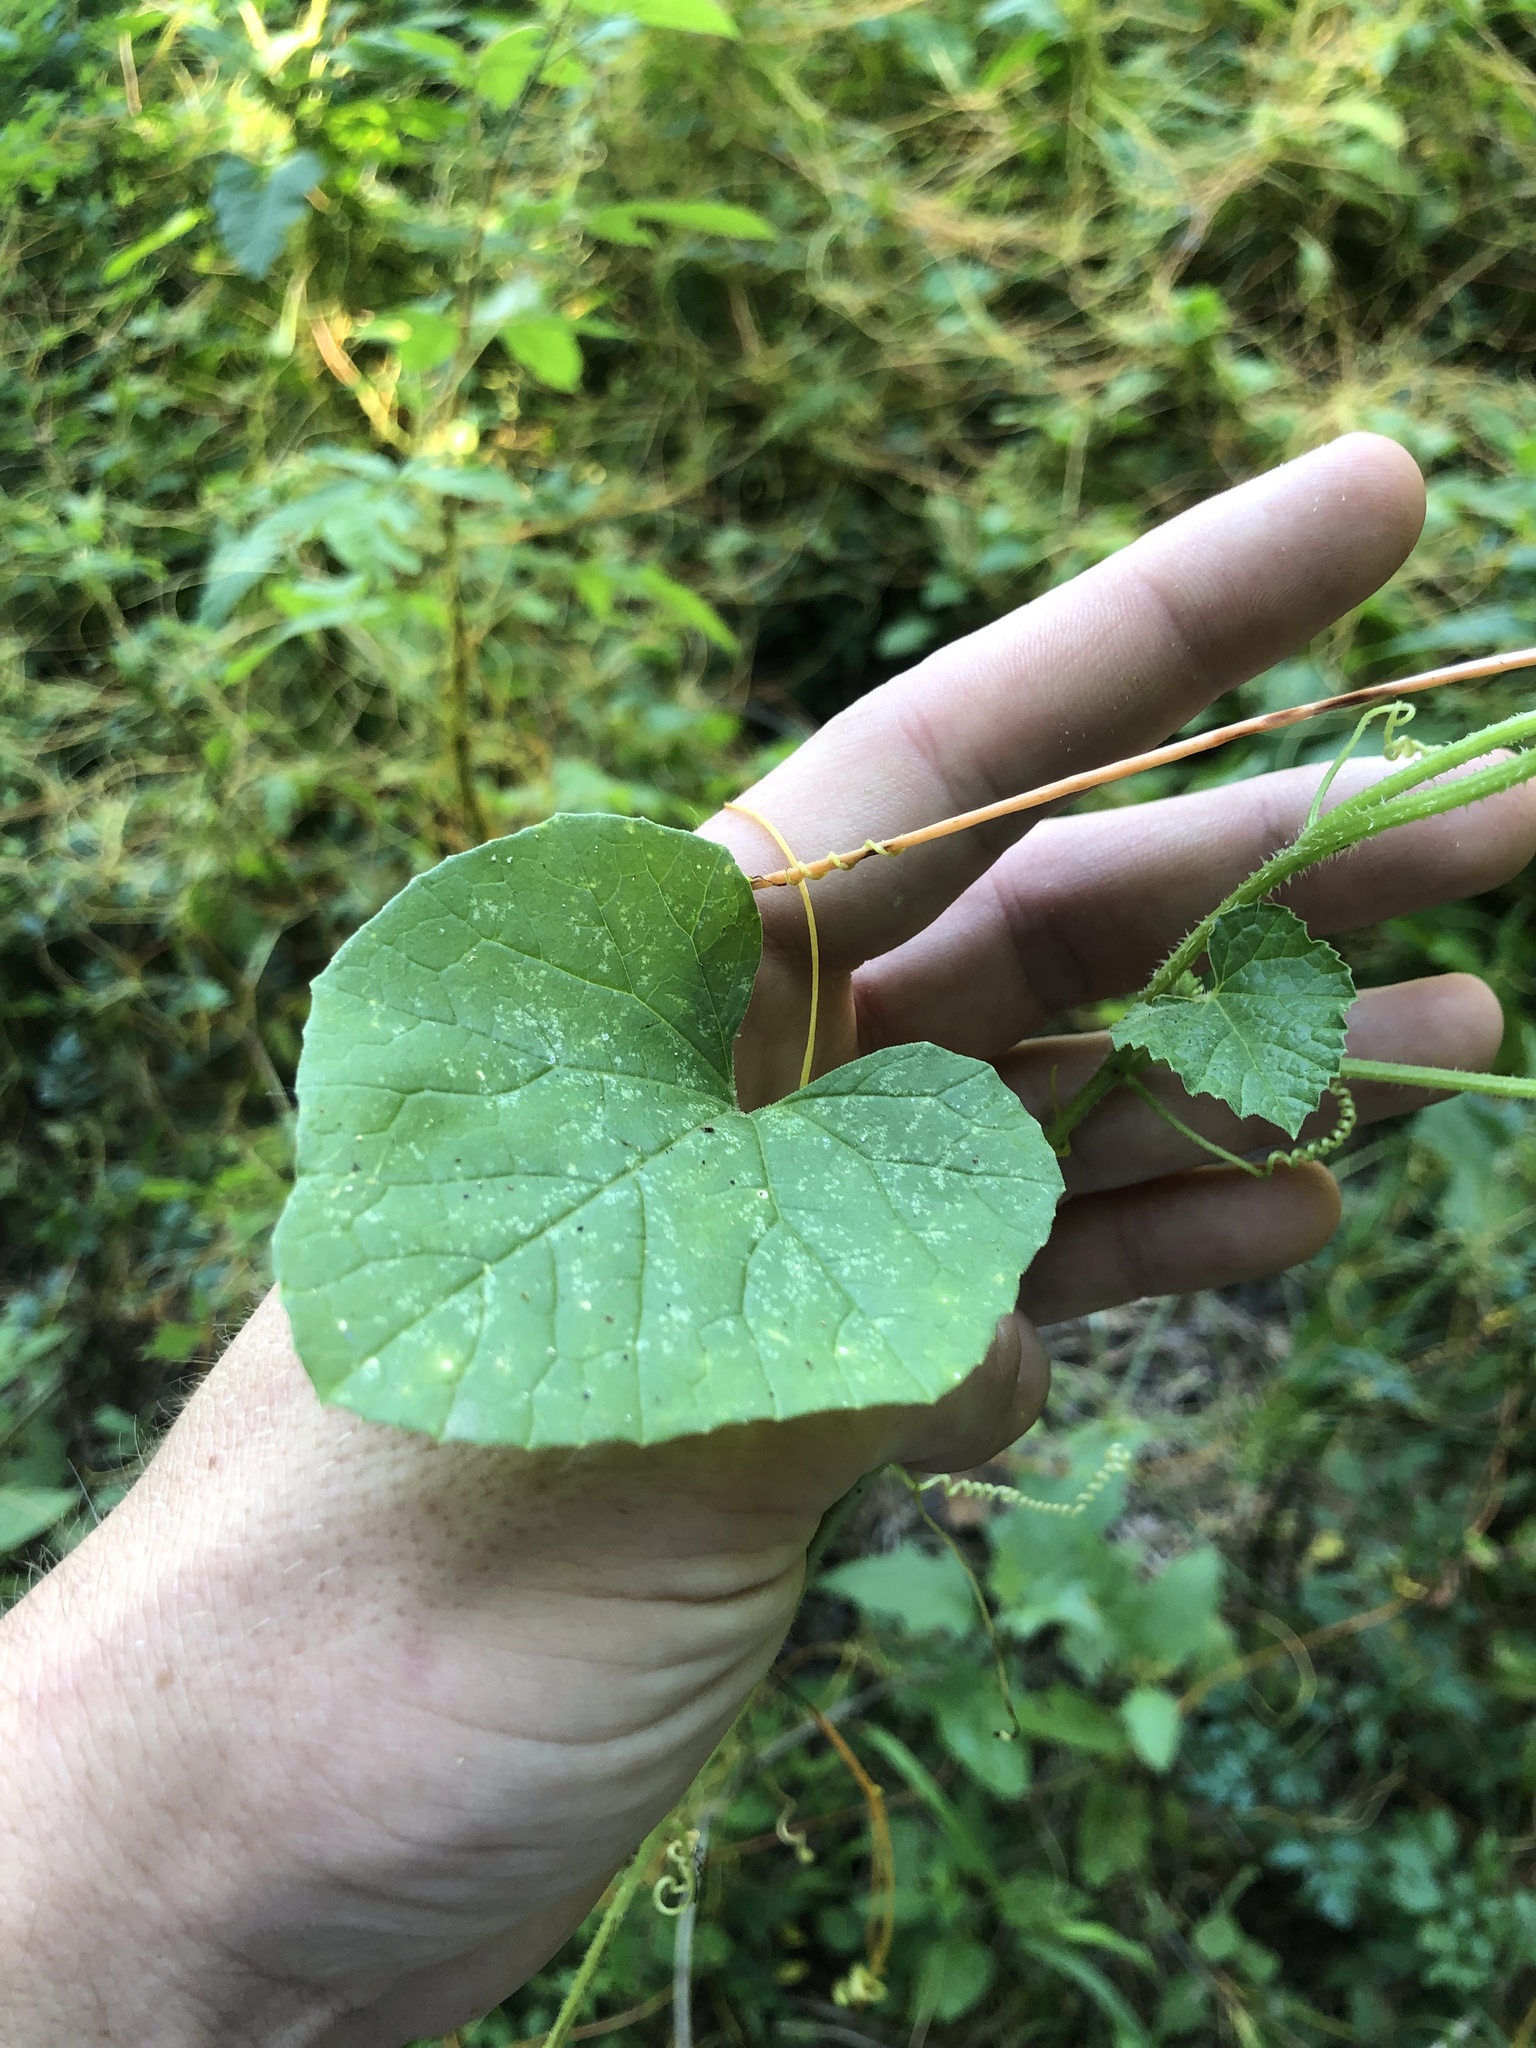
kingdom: Plantae
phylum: Tracheophyta
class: Magnoliopsida
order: Cucurbitales
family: Cucurbitaceae
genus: Cucumis
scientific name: Cucumis melo
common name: Melon
